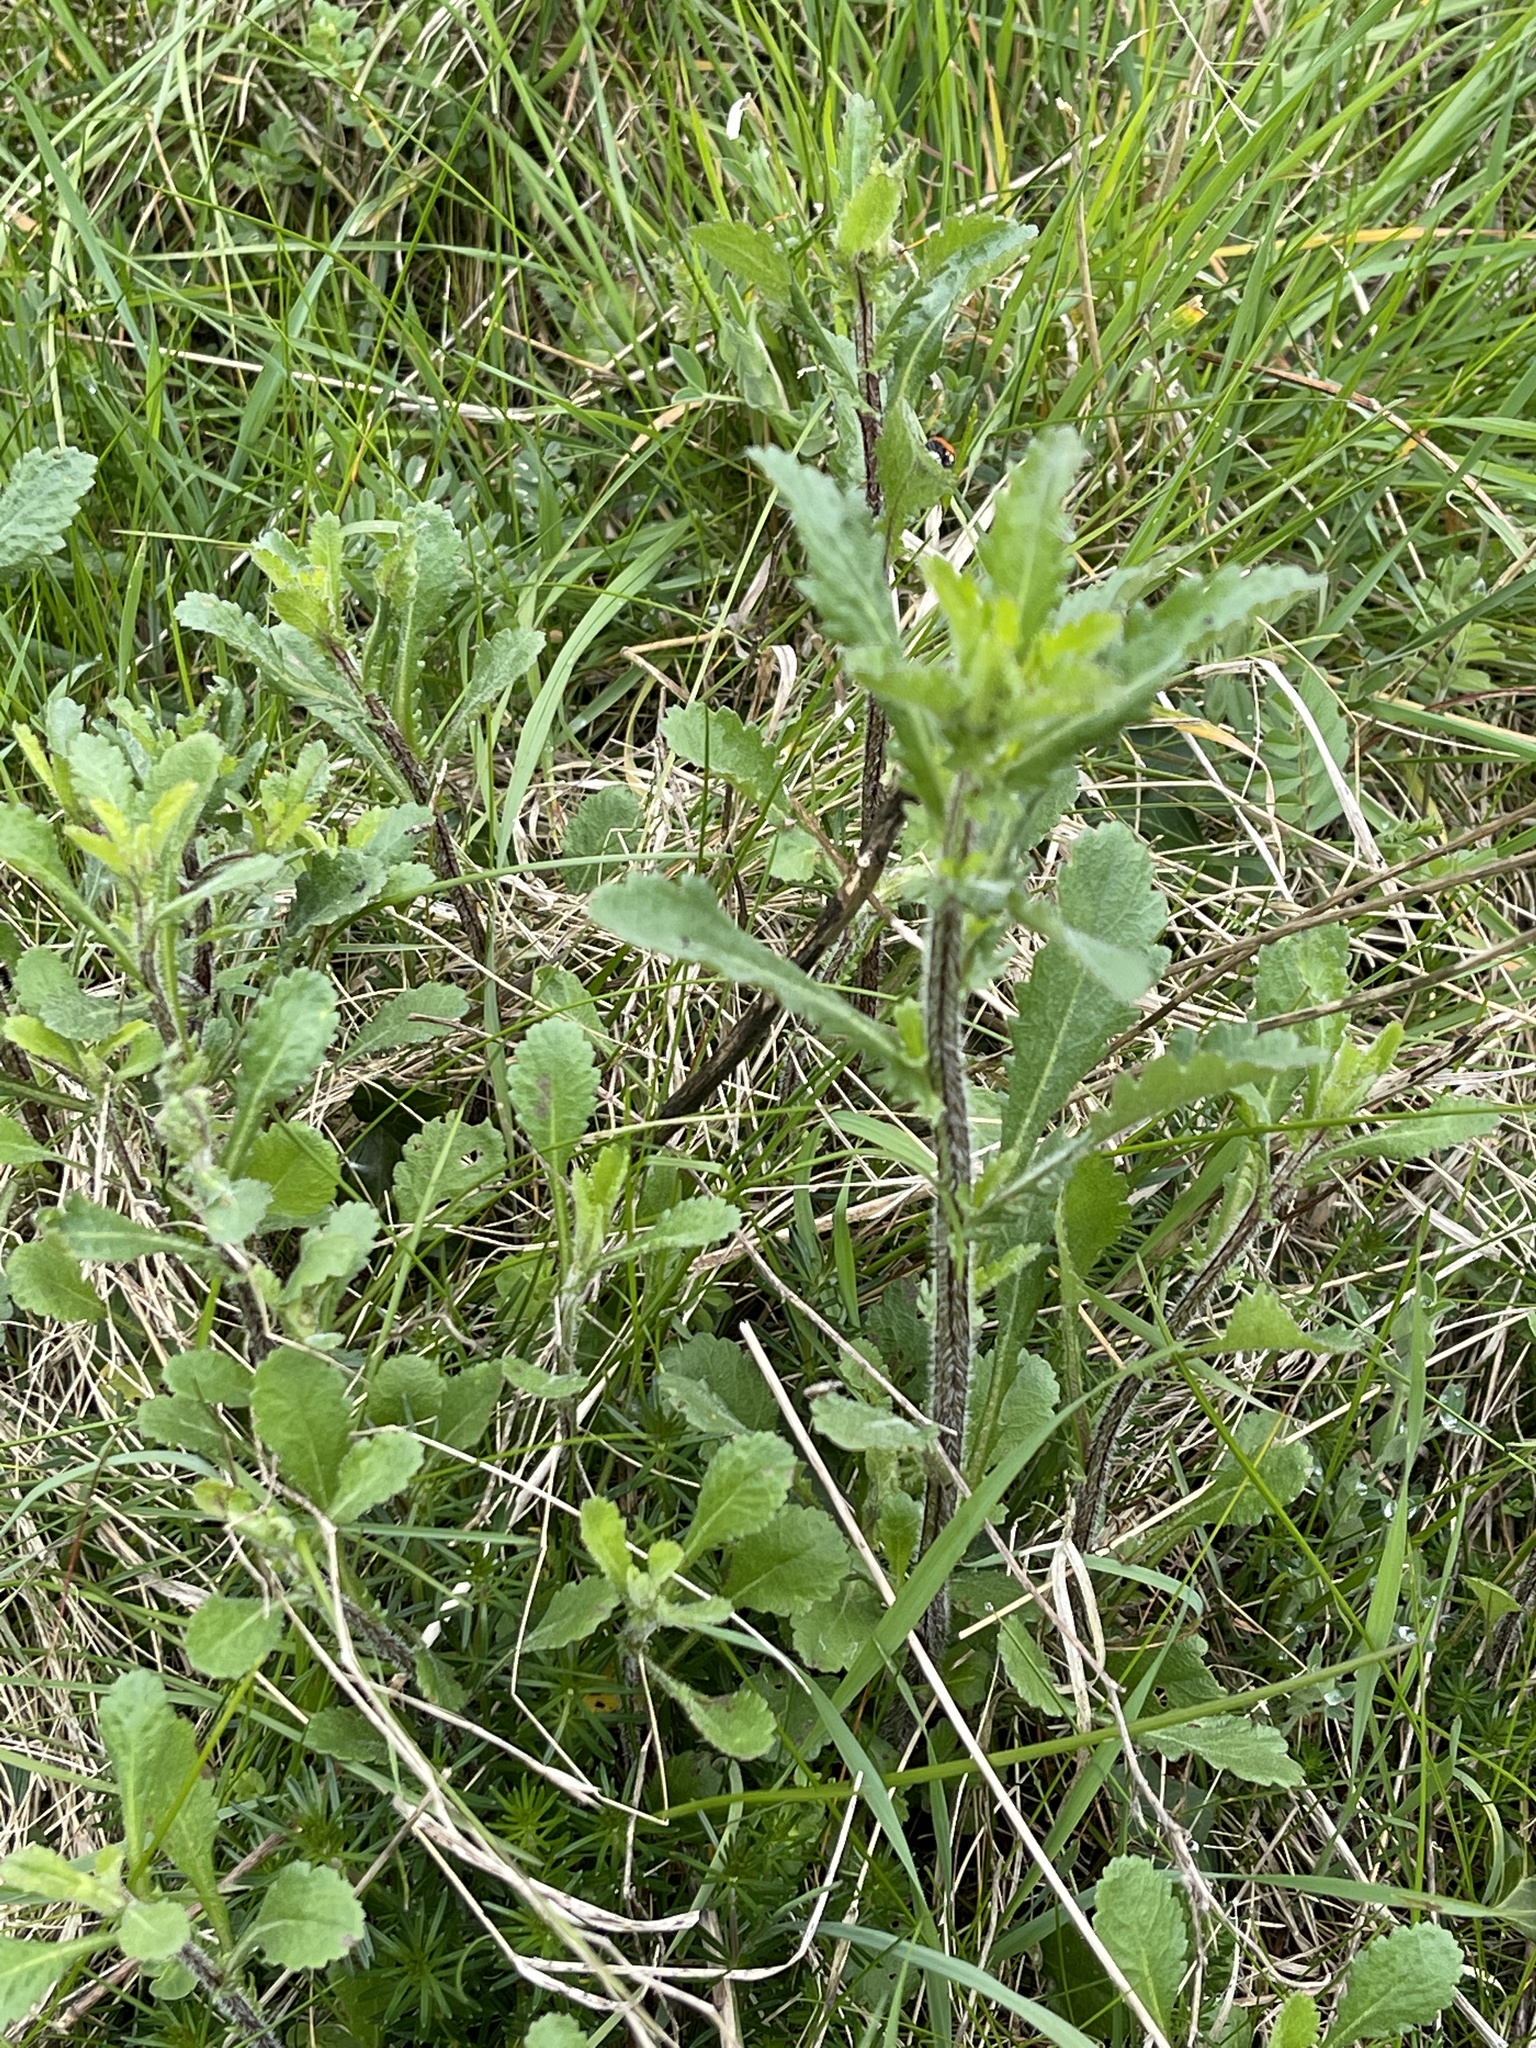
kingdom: Plantae
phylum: Tracheophyta
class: Magnoliopsida
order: Asterales
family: Asteraceae
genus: Leucanthemum
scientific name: Leucanthemum vulgare
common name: Oxeye daisy
